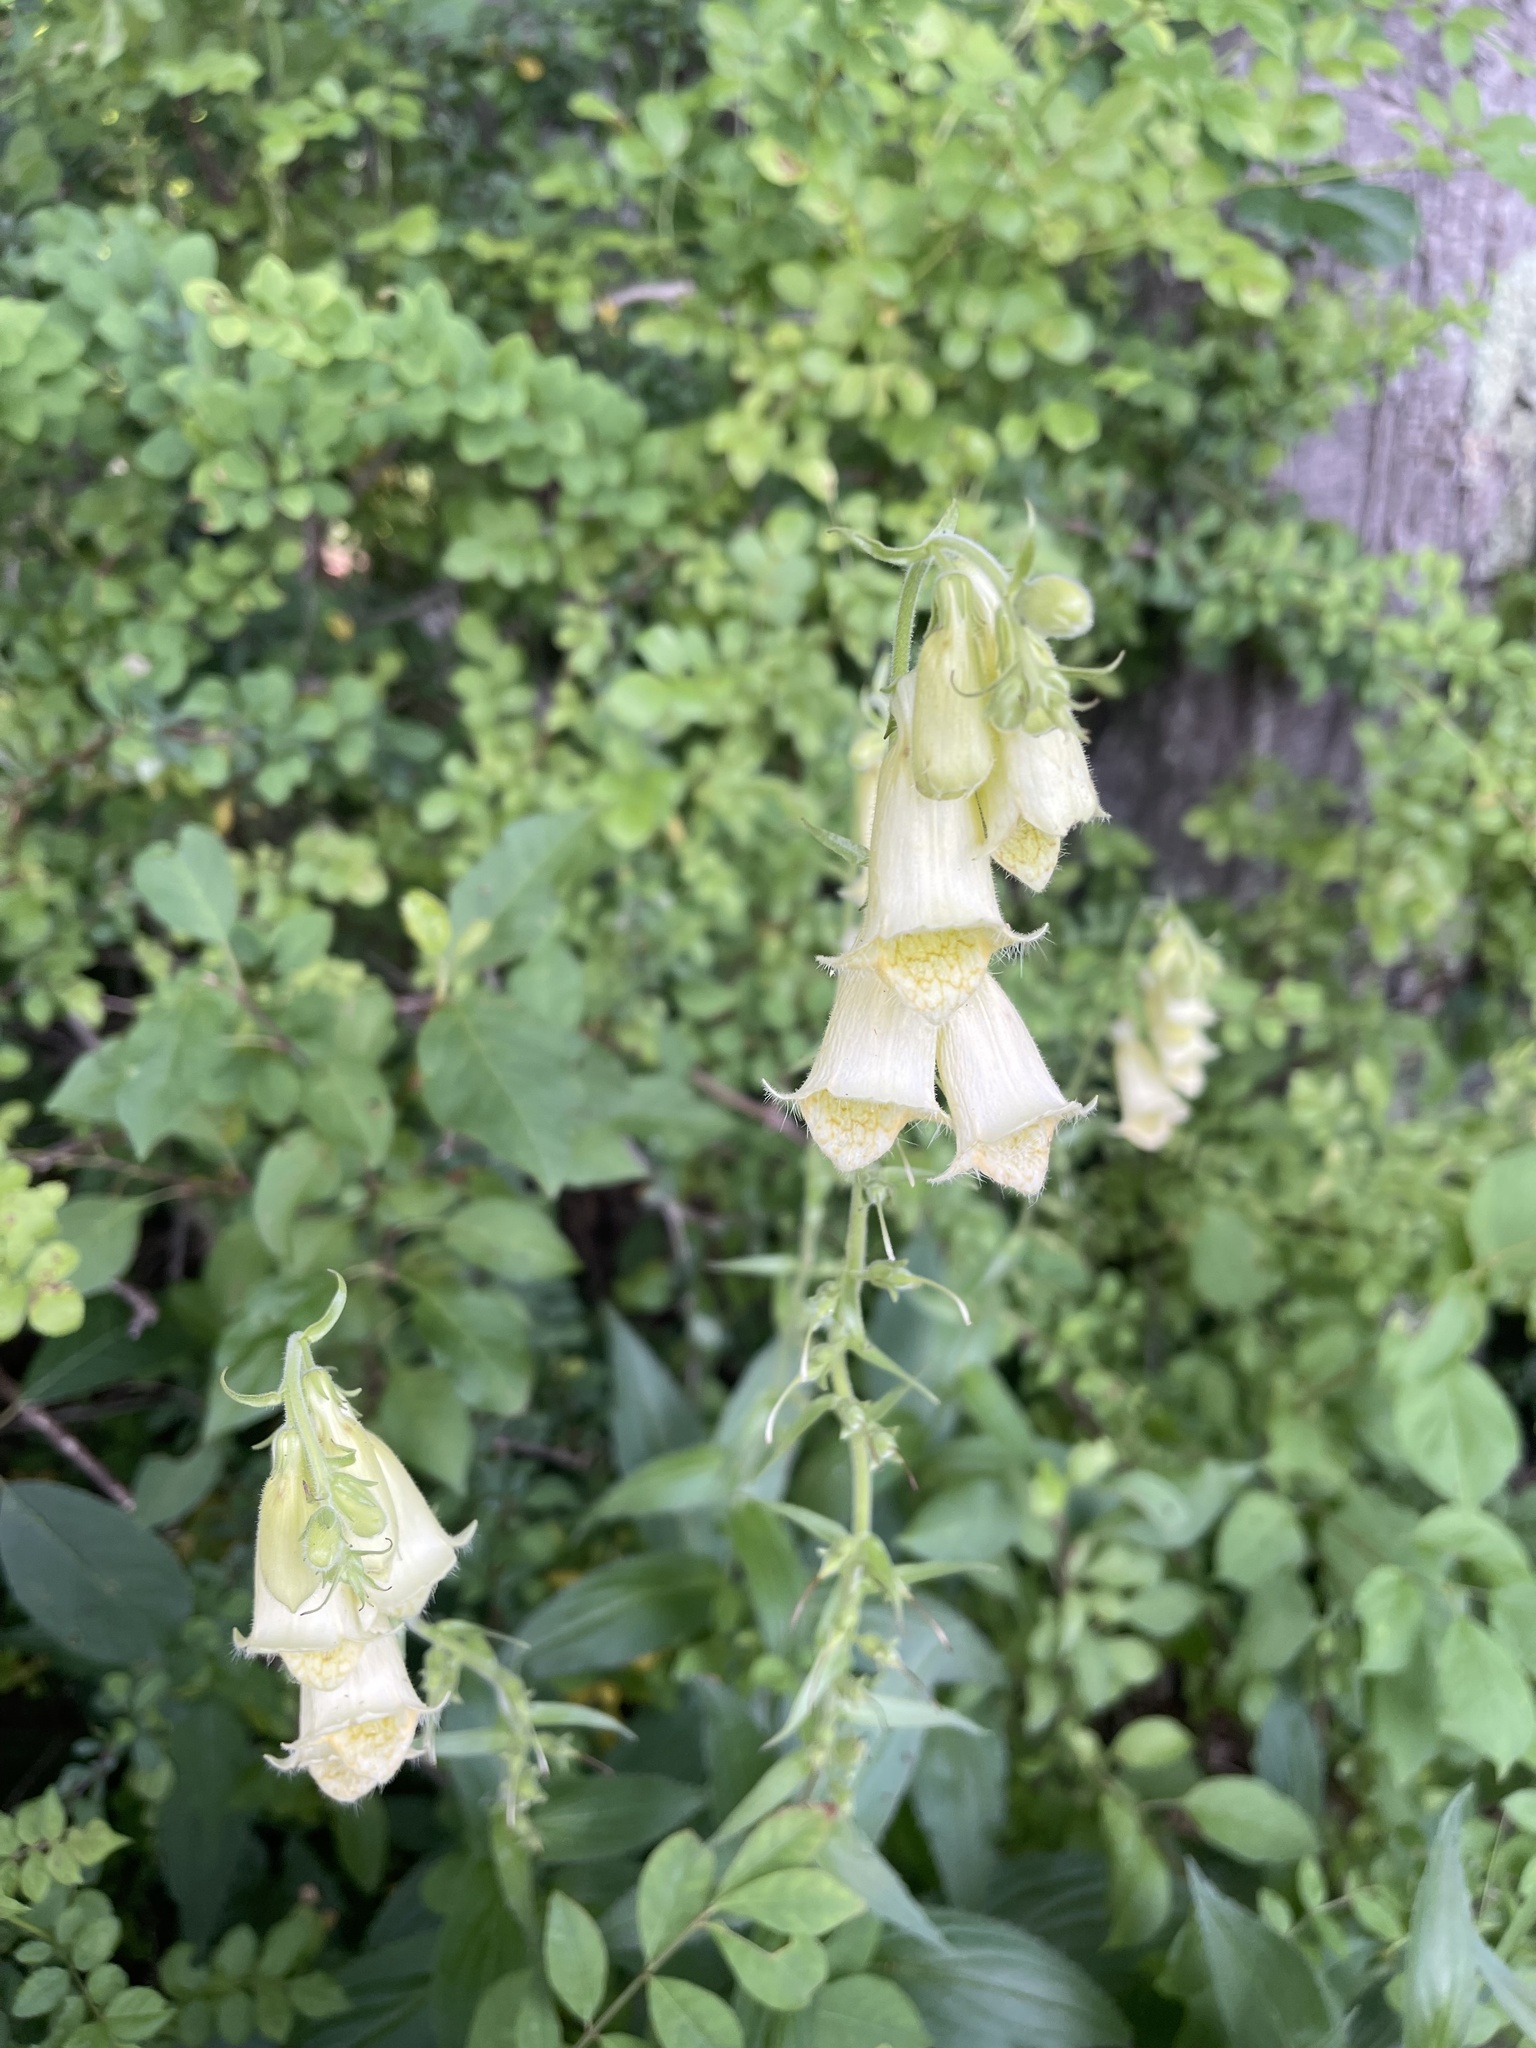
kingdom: Plantae
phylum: Tracheophyta
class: Magnoliopsida
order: Lamiales
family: Plantaginaceae
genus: Digitalis
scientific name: Digitalis grandiflora
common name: Yellow foxglove
